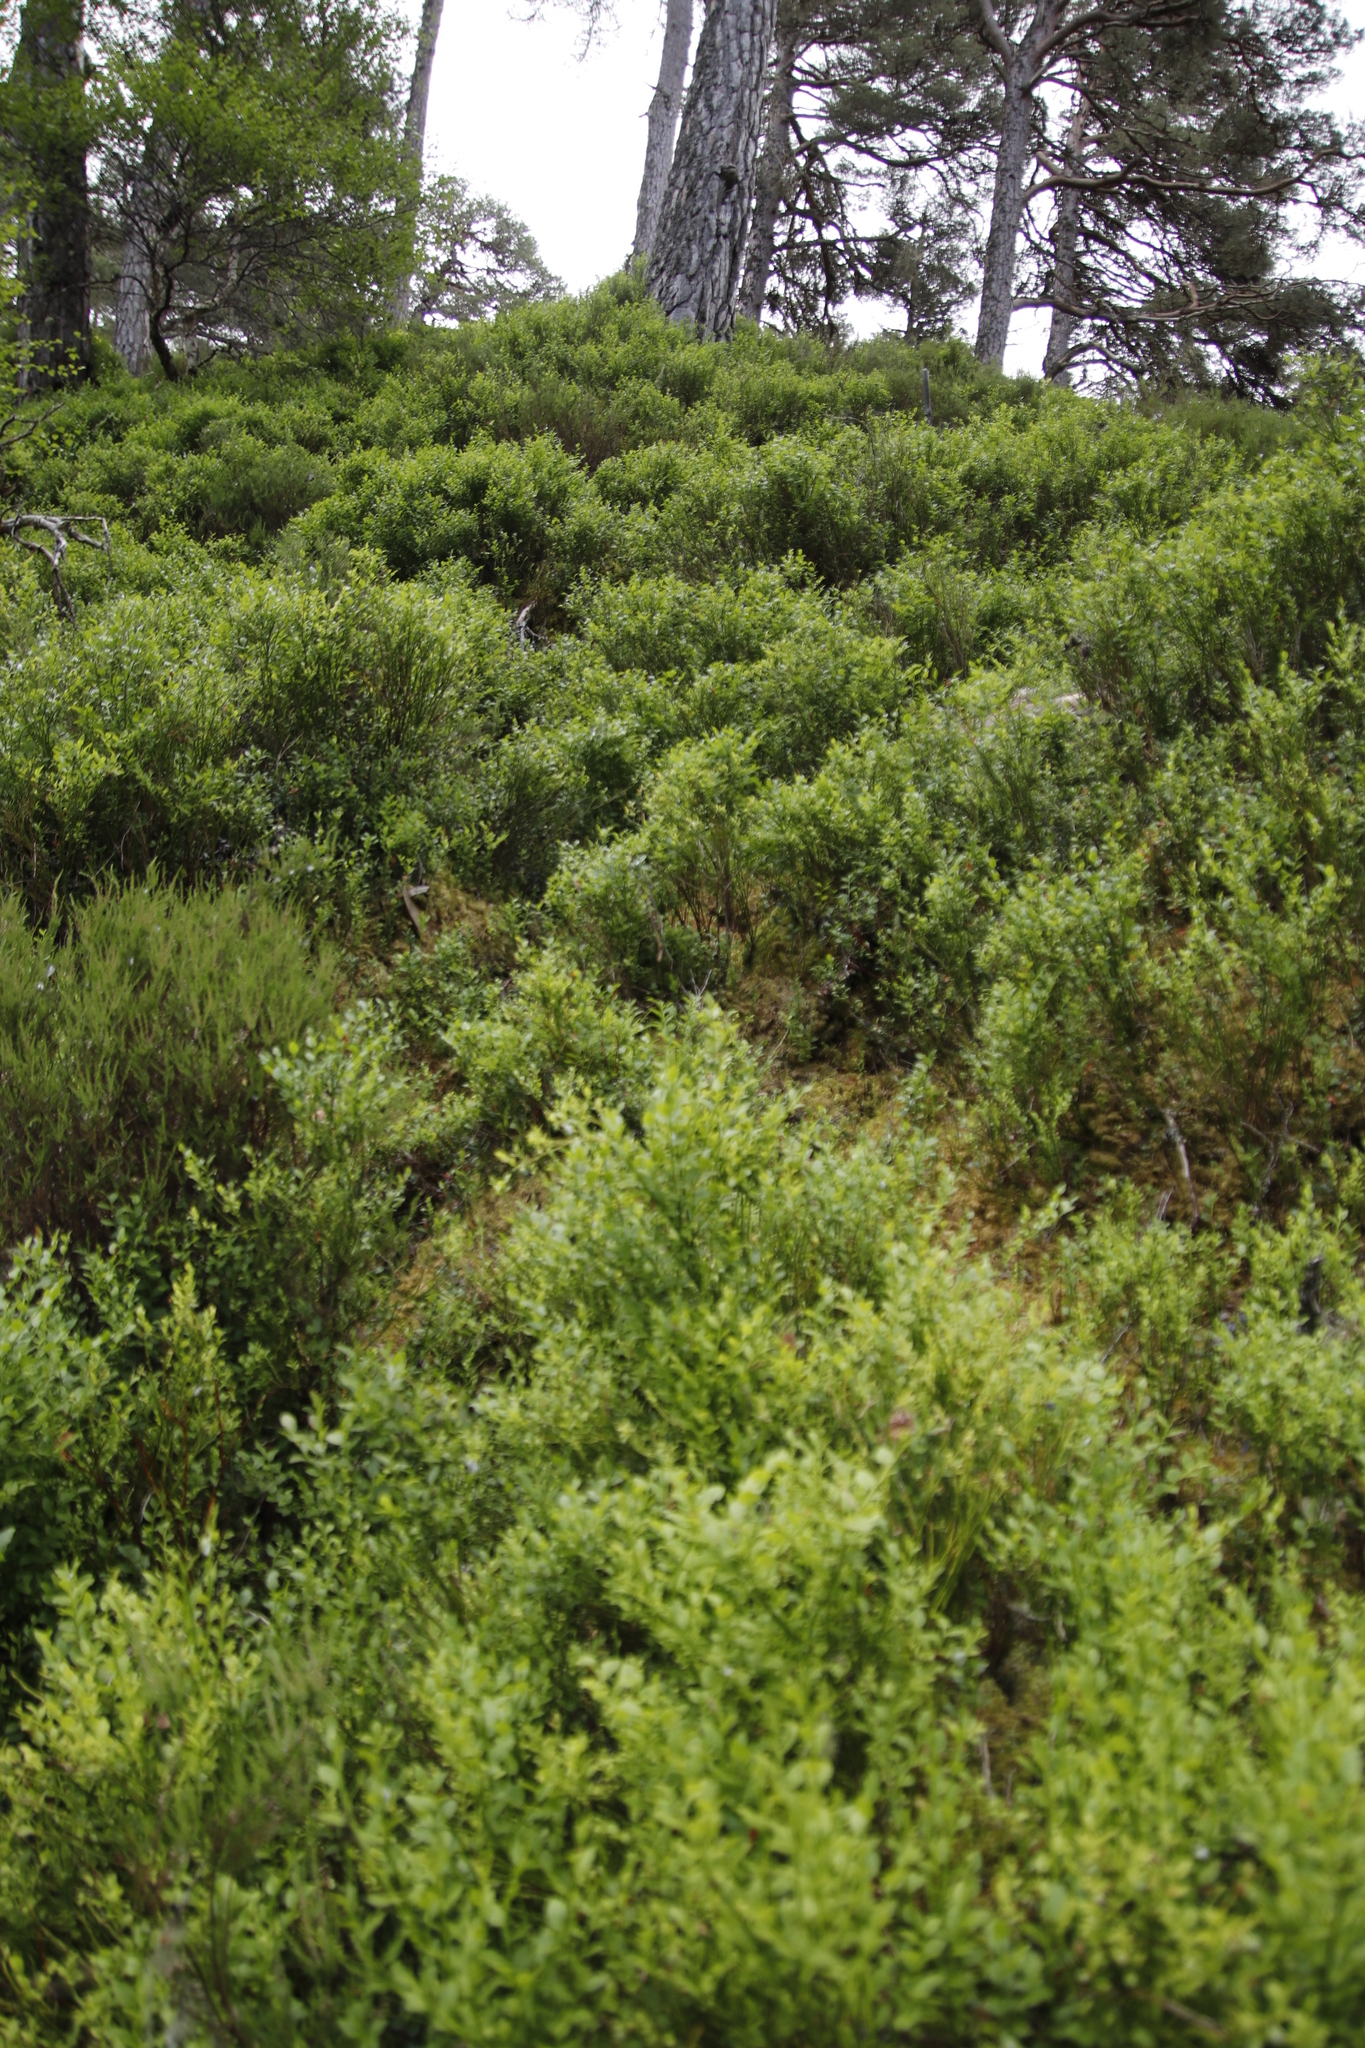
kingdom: Plantae
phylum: Tracheophyta
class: Magnoliopsida
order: Ericales
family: Ericaceae
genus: Vaccinium
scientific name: Vaccinium myrtillus
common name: Bilberry
